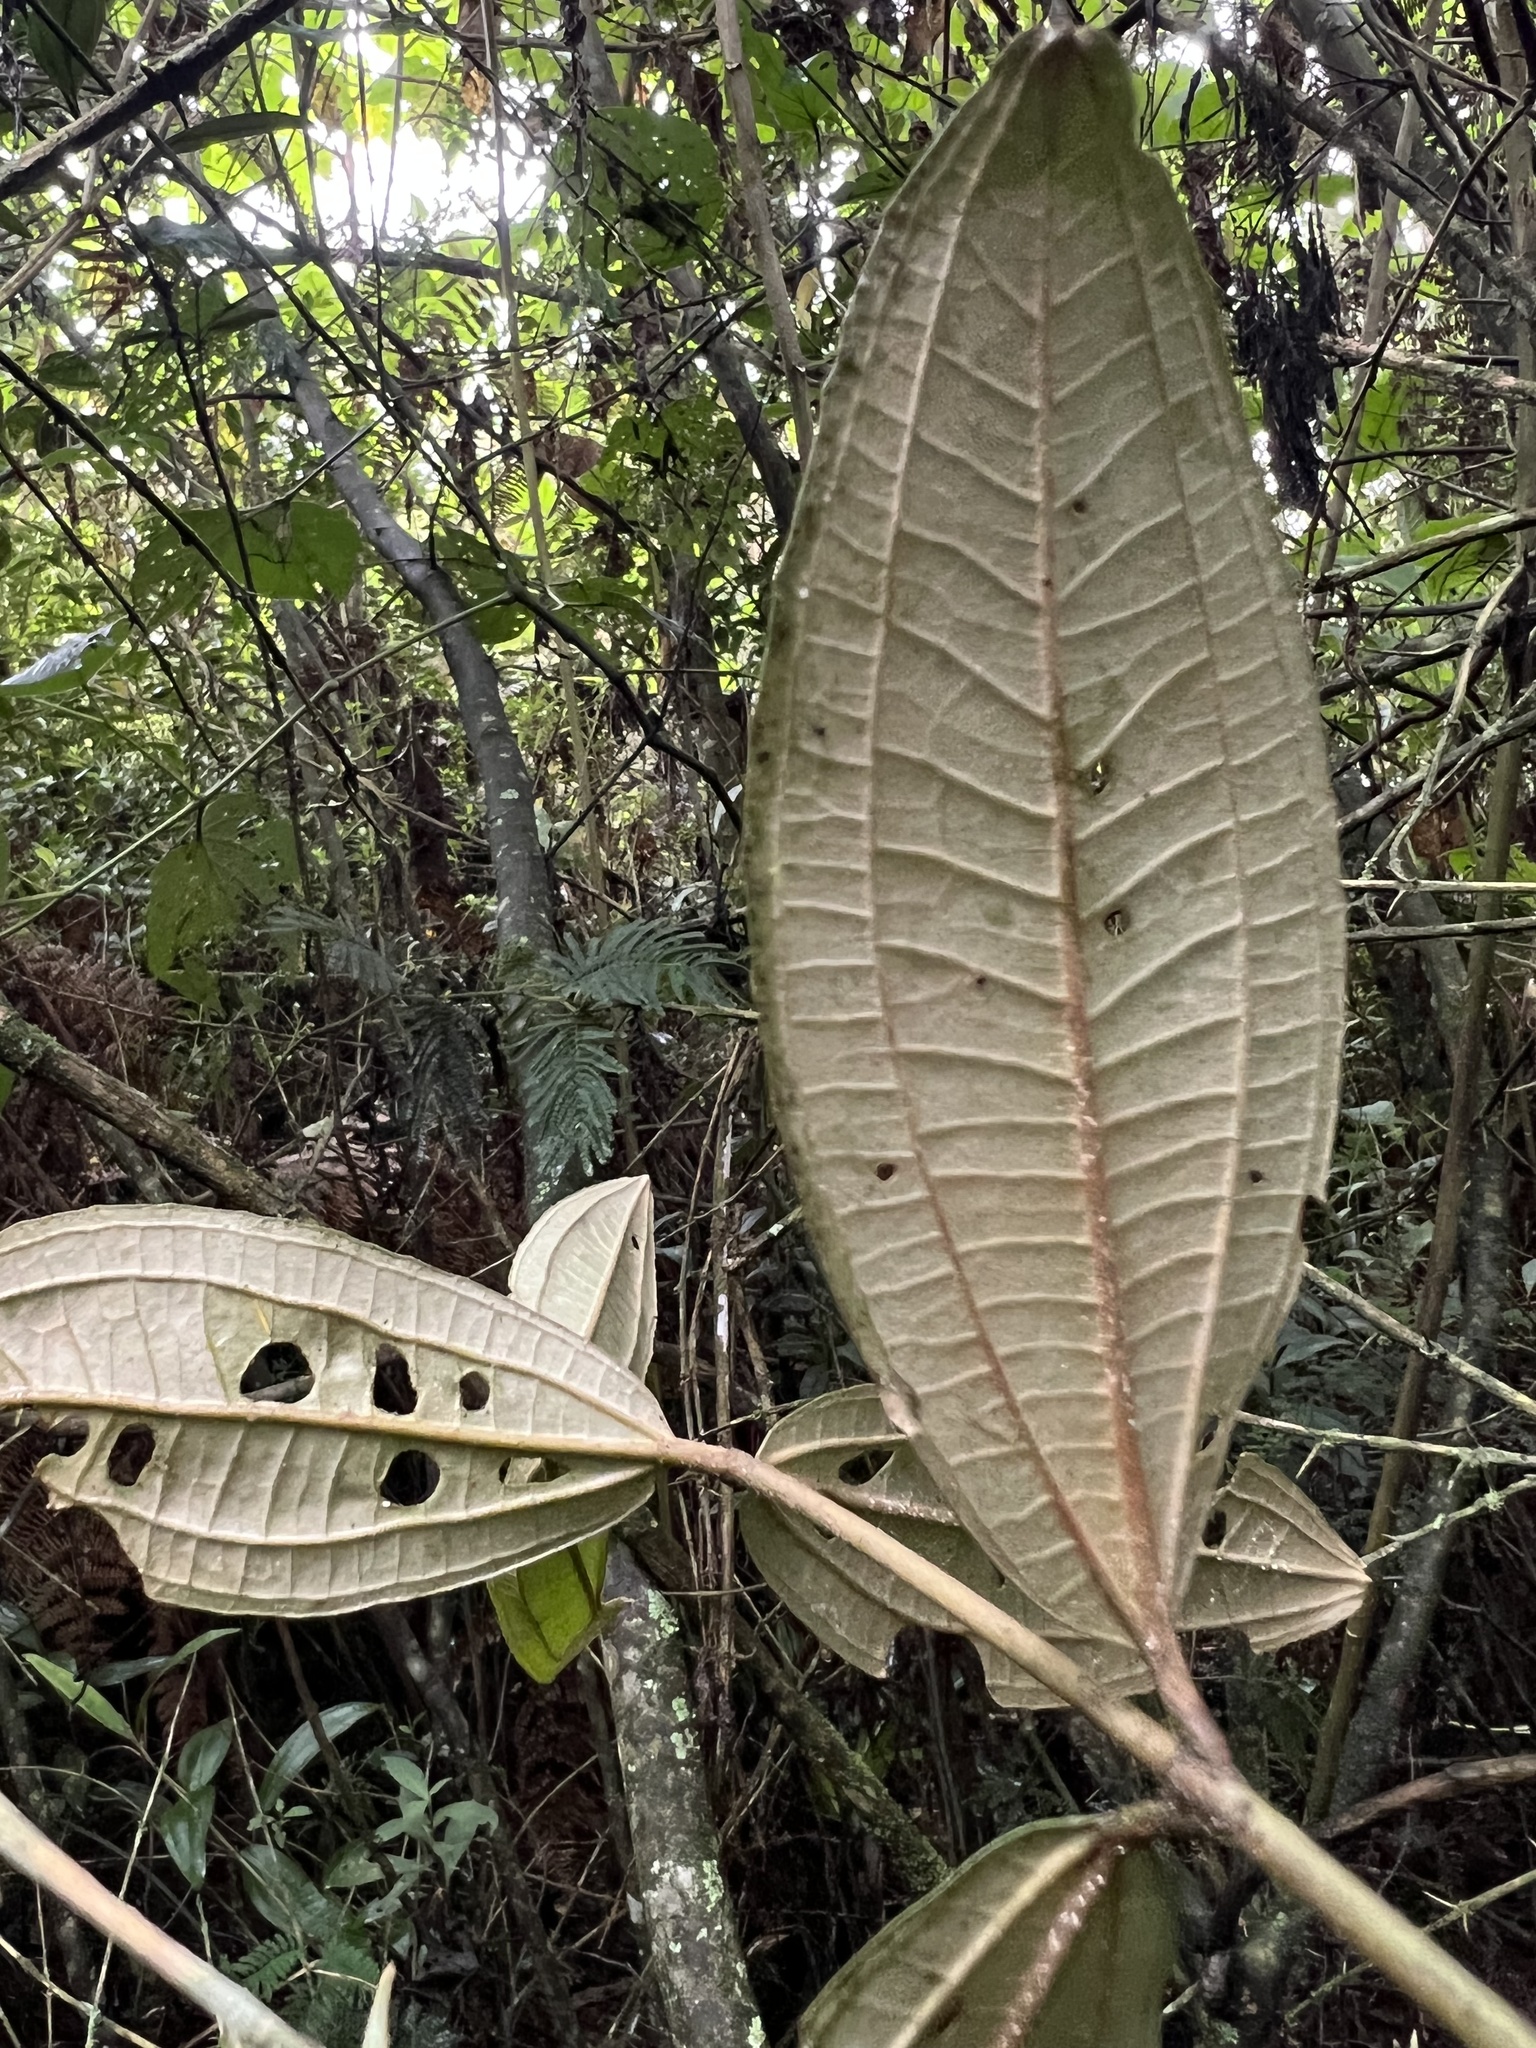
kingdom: Plantae
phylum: Tracheophyta
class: Magnoliopsida
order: Myrtales
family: Melastomataceae
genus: Miconia
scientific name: Miconia squamulosa
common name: Squamulose maya
